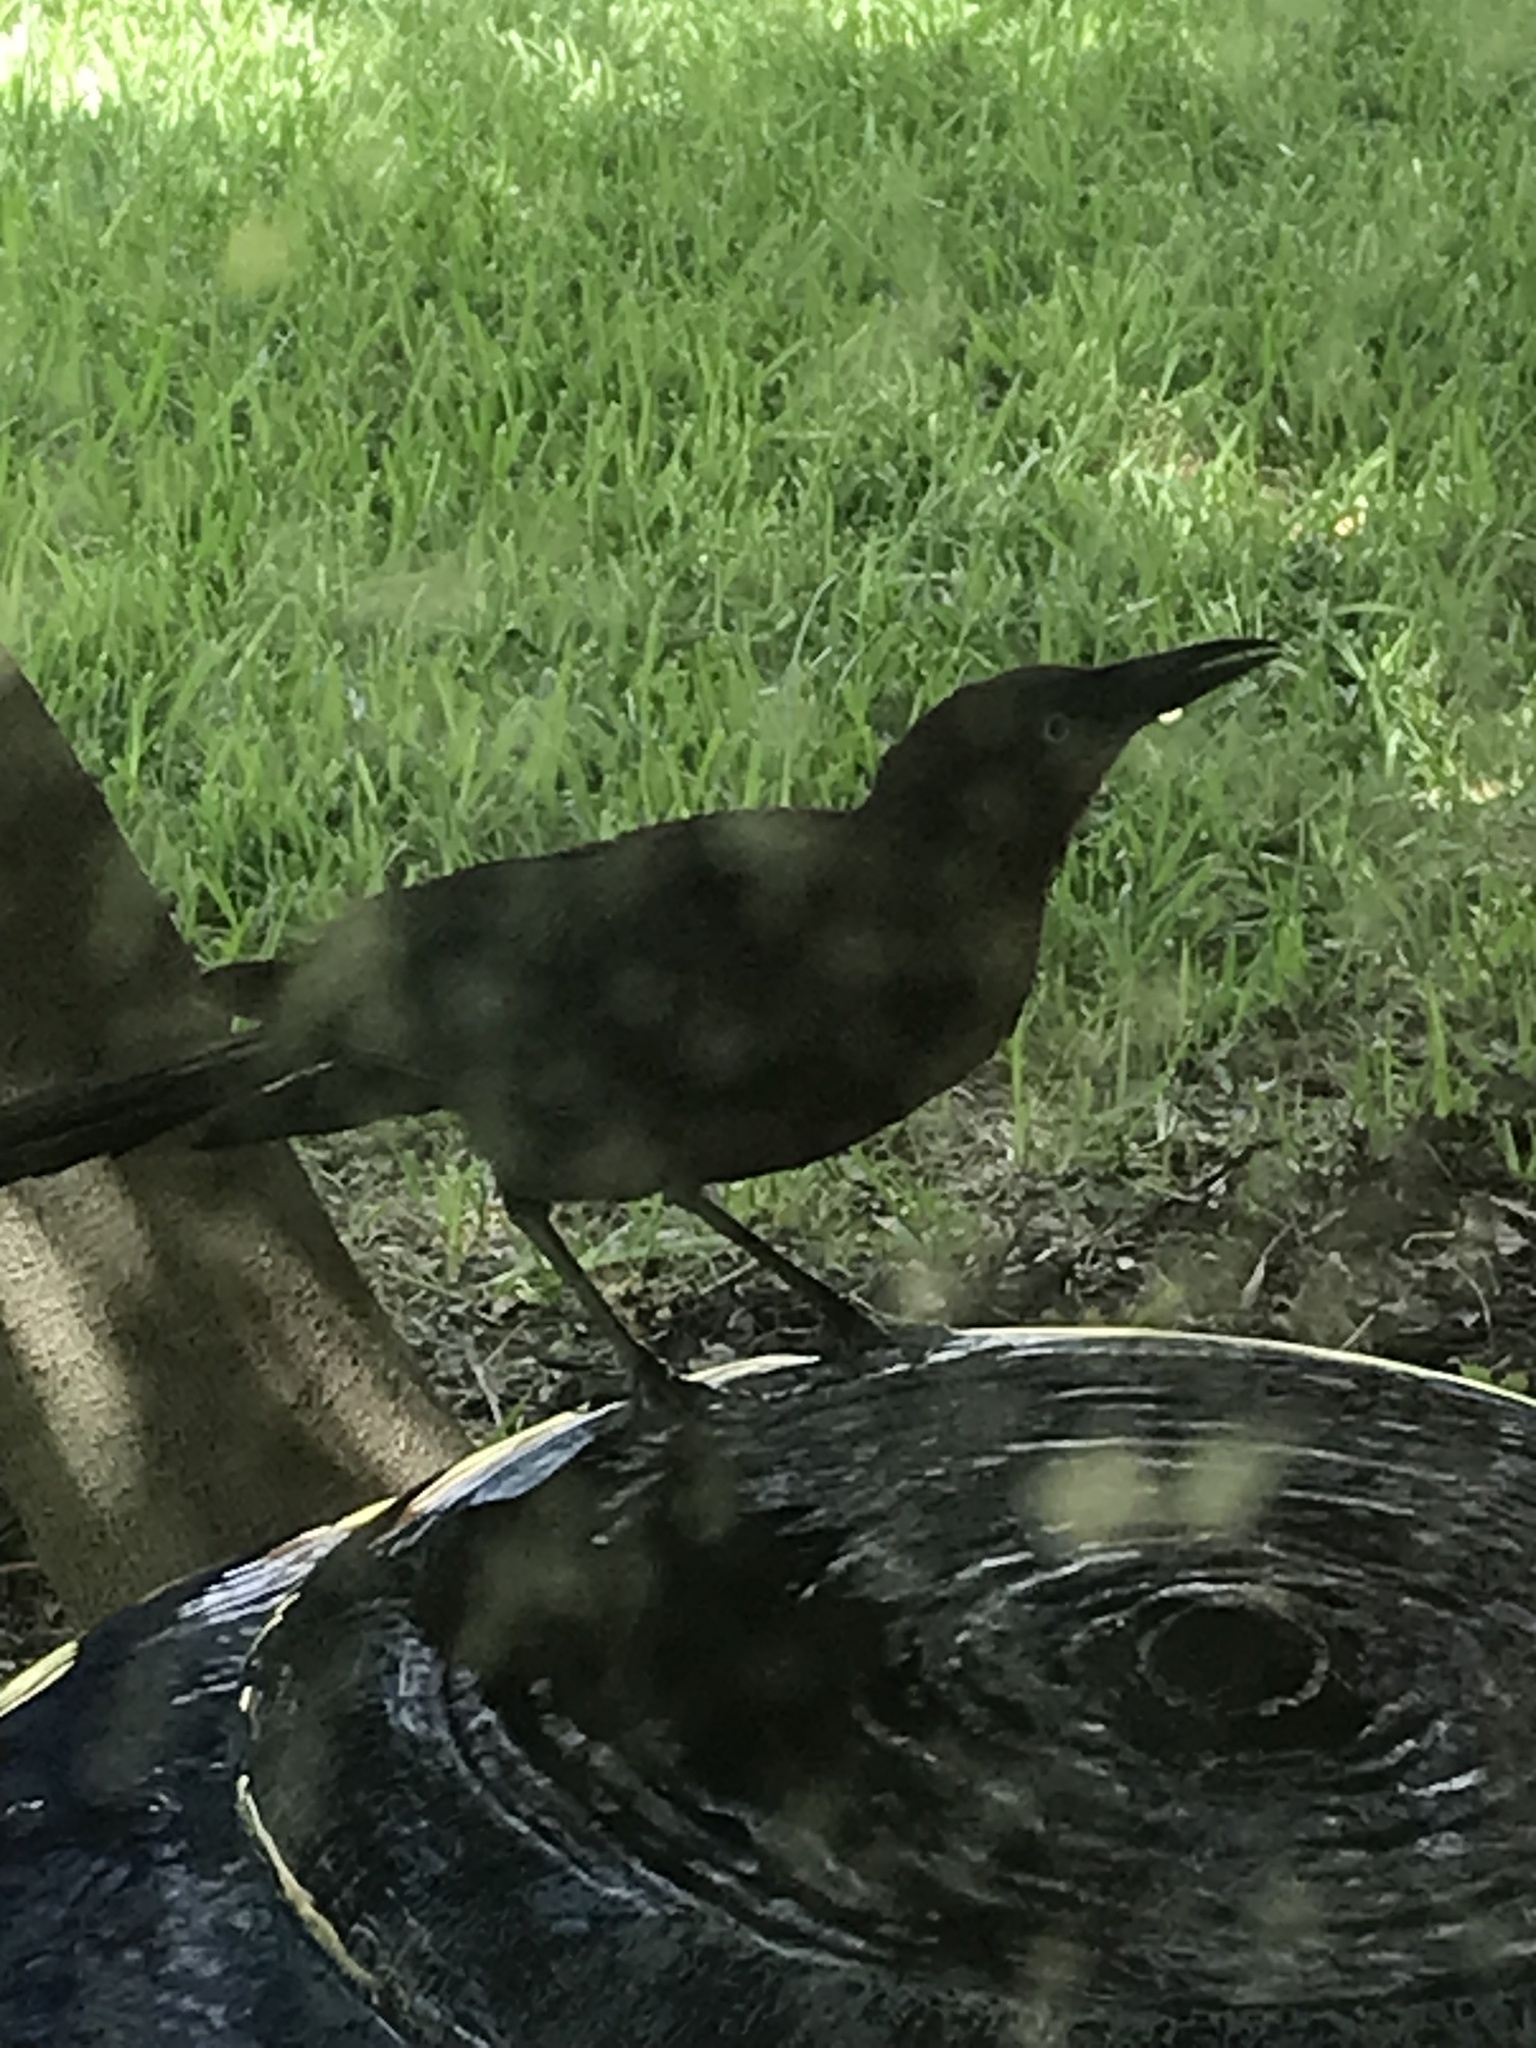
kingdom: Animalia
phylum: Chordata
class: Aves
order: Passeriformes
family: Icteridae
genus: Quiscalus
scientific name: Quiscalus mexicanus
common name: Great-tailed grackle
